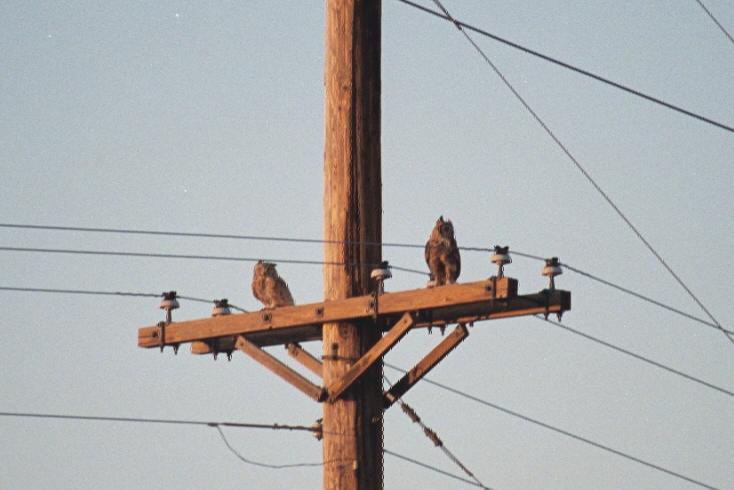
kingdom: Animalia
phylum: Chordata
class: Aves
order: Strigiformes
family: Strigidae
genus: Bubo
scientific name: Bubo virginianus
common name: Great horned owl
